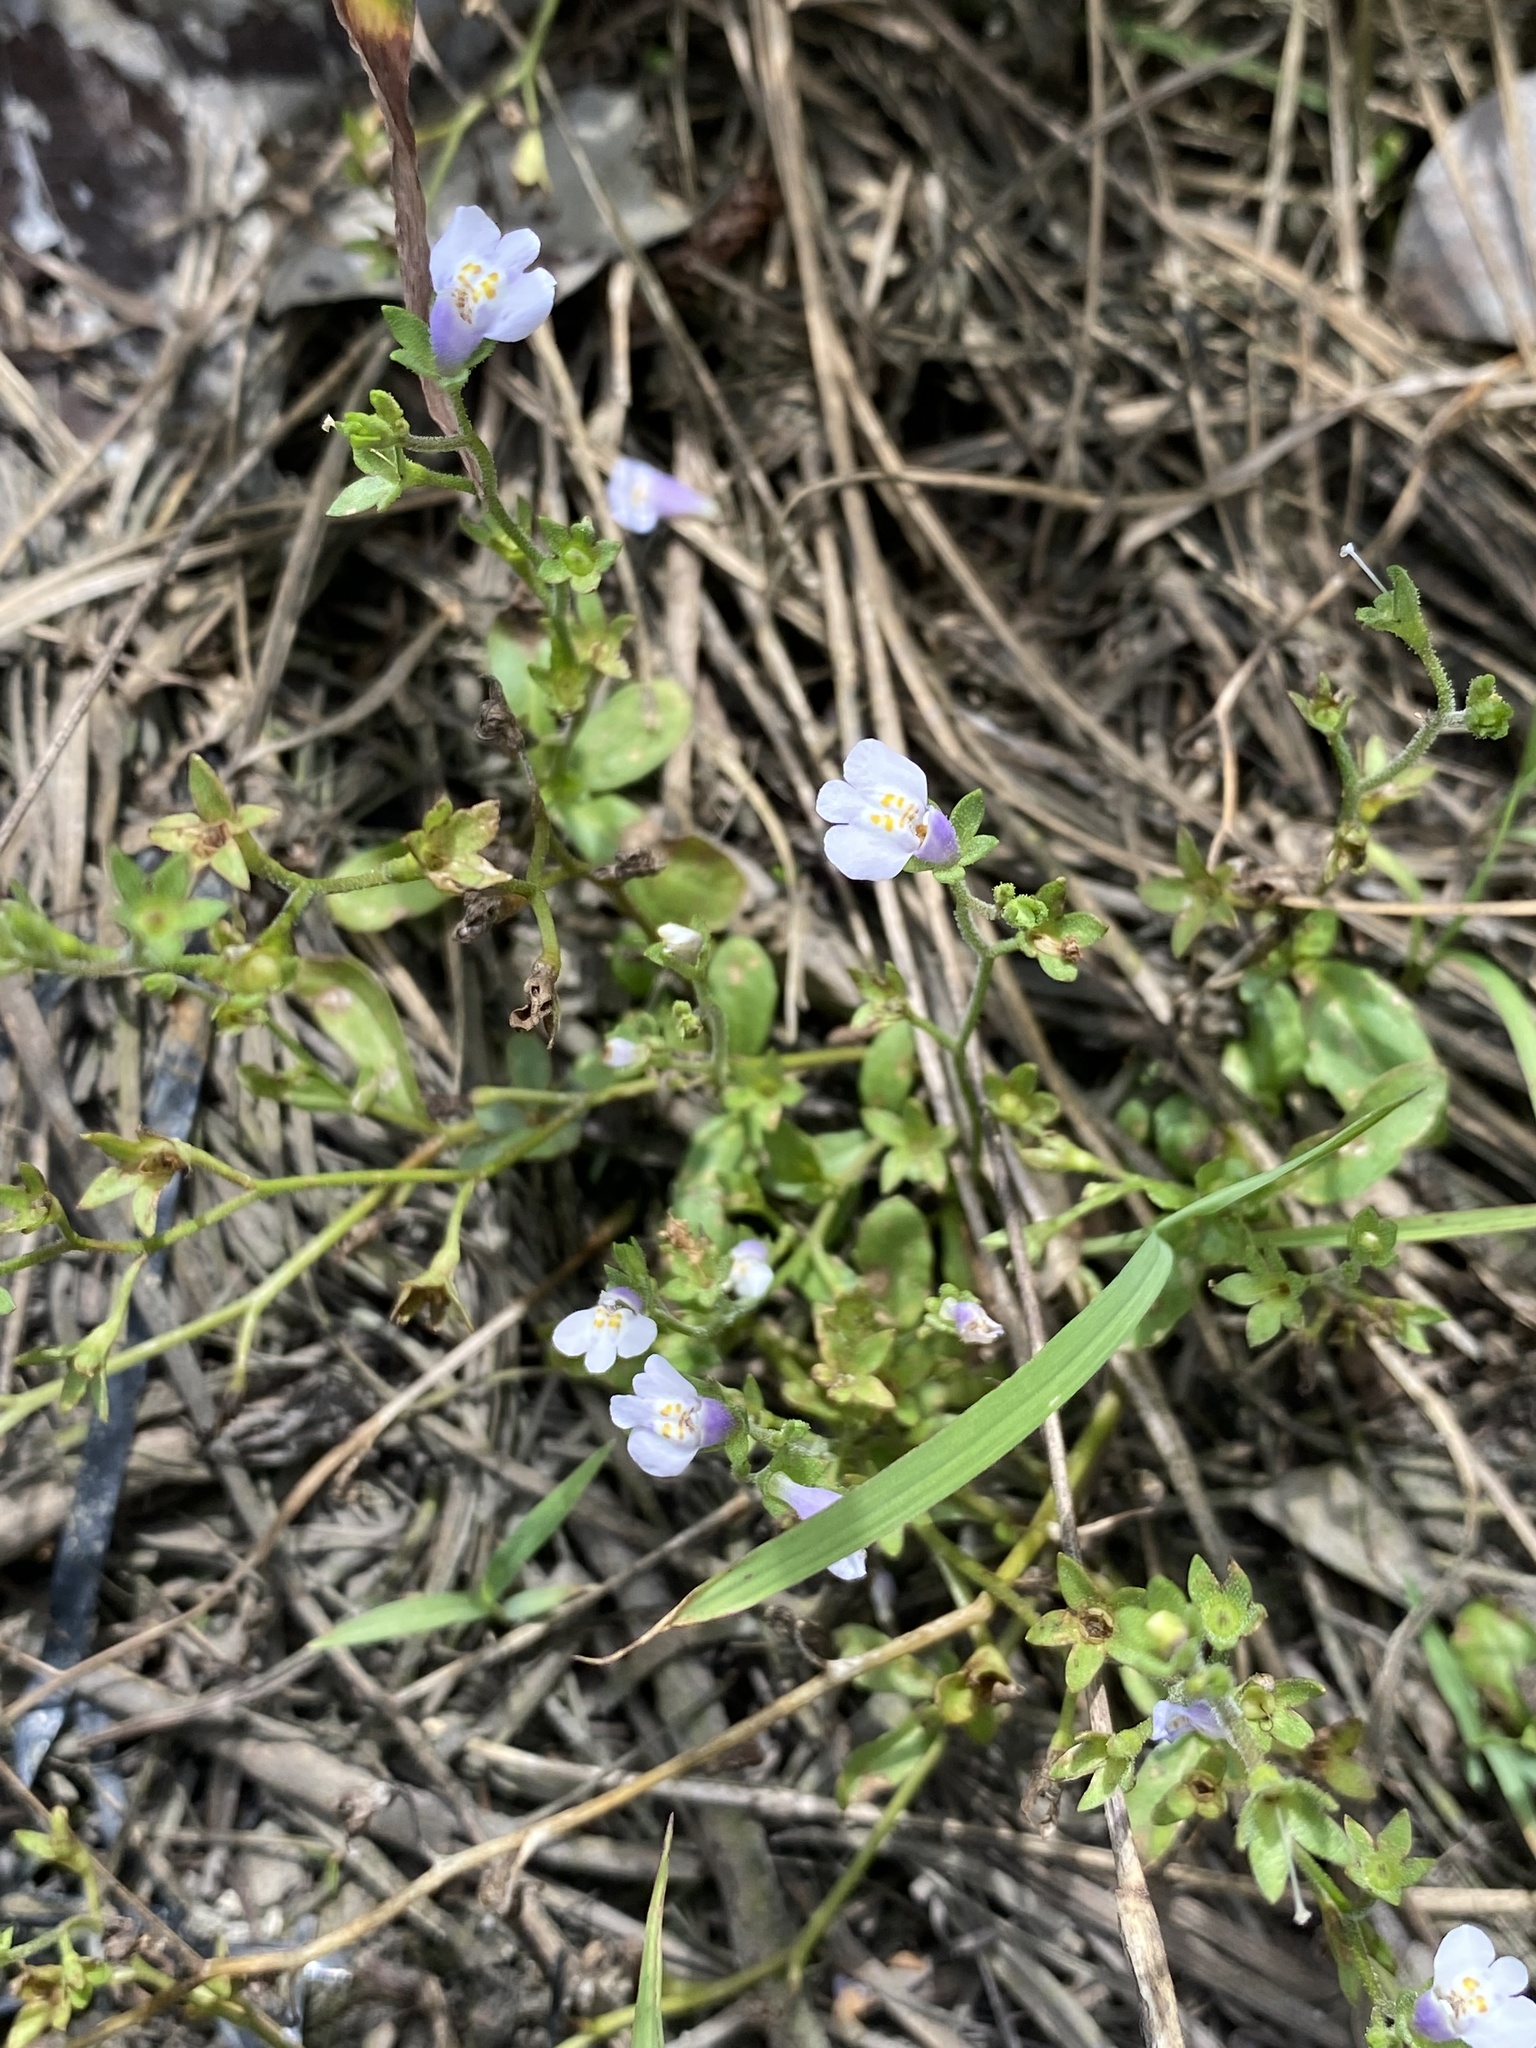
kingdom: Plantae
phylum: Tracheophyta
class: Magnoliopsida
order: Lamiales
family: Mazaceae
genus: Mazus
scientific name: Mazus pumilus
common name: Japanese mazus
